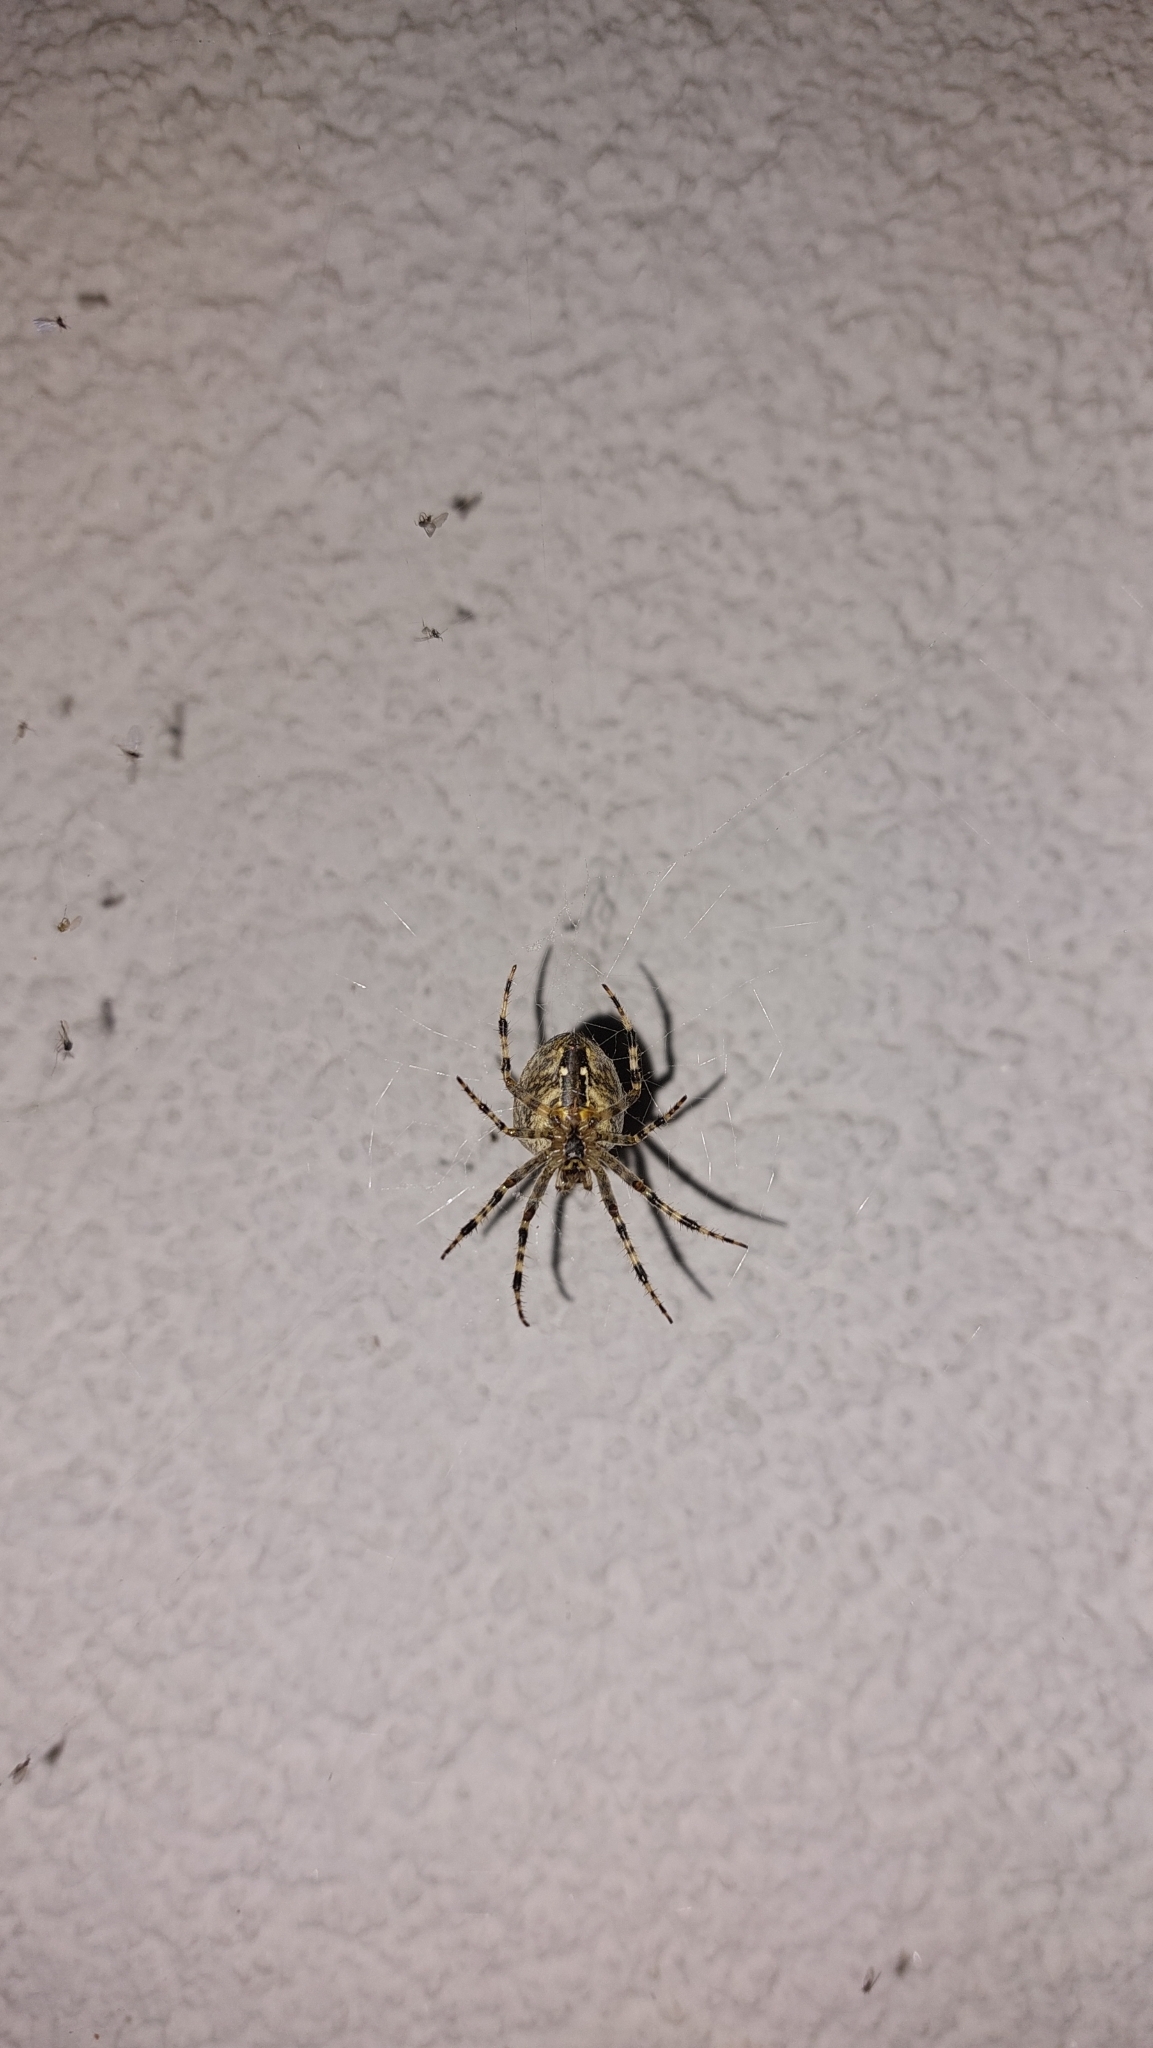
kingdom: Animalia
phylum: Arthropoda
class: Arachnida
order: Araneae
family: Araneidae
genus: Araneus
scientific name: Araneus diadematus
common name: Cross orbweaver
